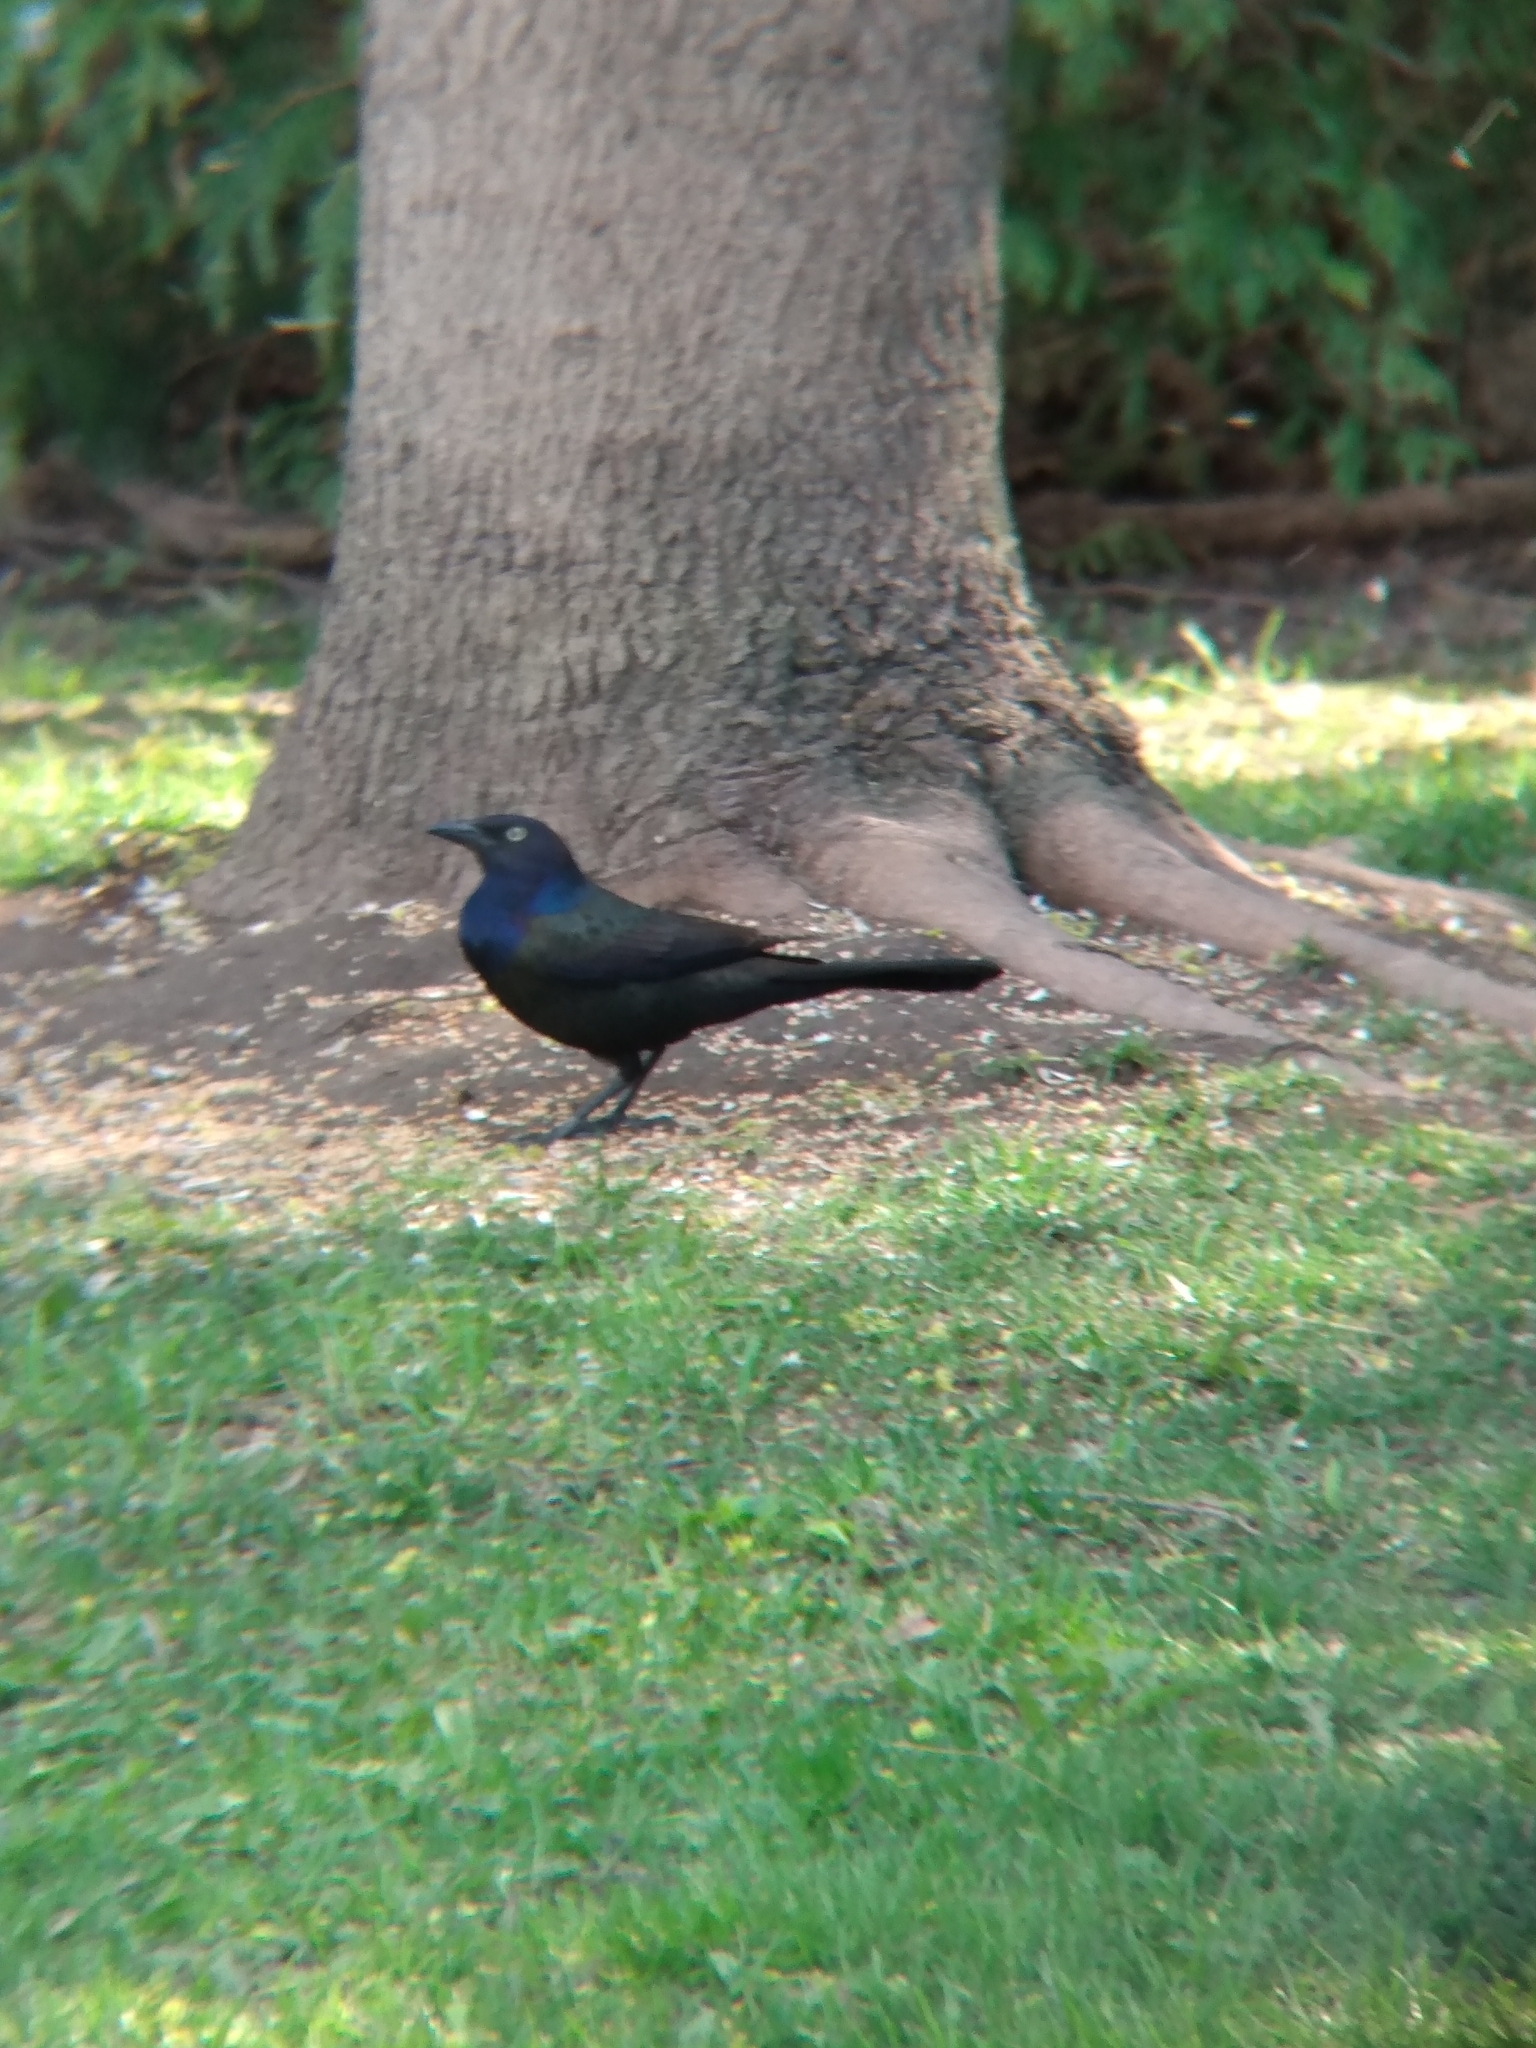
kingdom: Animalia
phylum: Chordata
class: Aves
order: Passeriformes
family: Icteridae
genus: Quiscalus
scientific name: Quiscalus quiscula
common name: Common grackle
